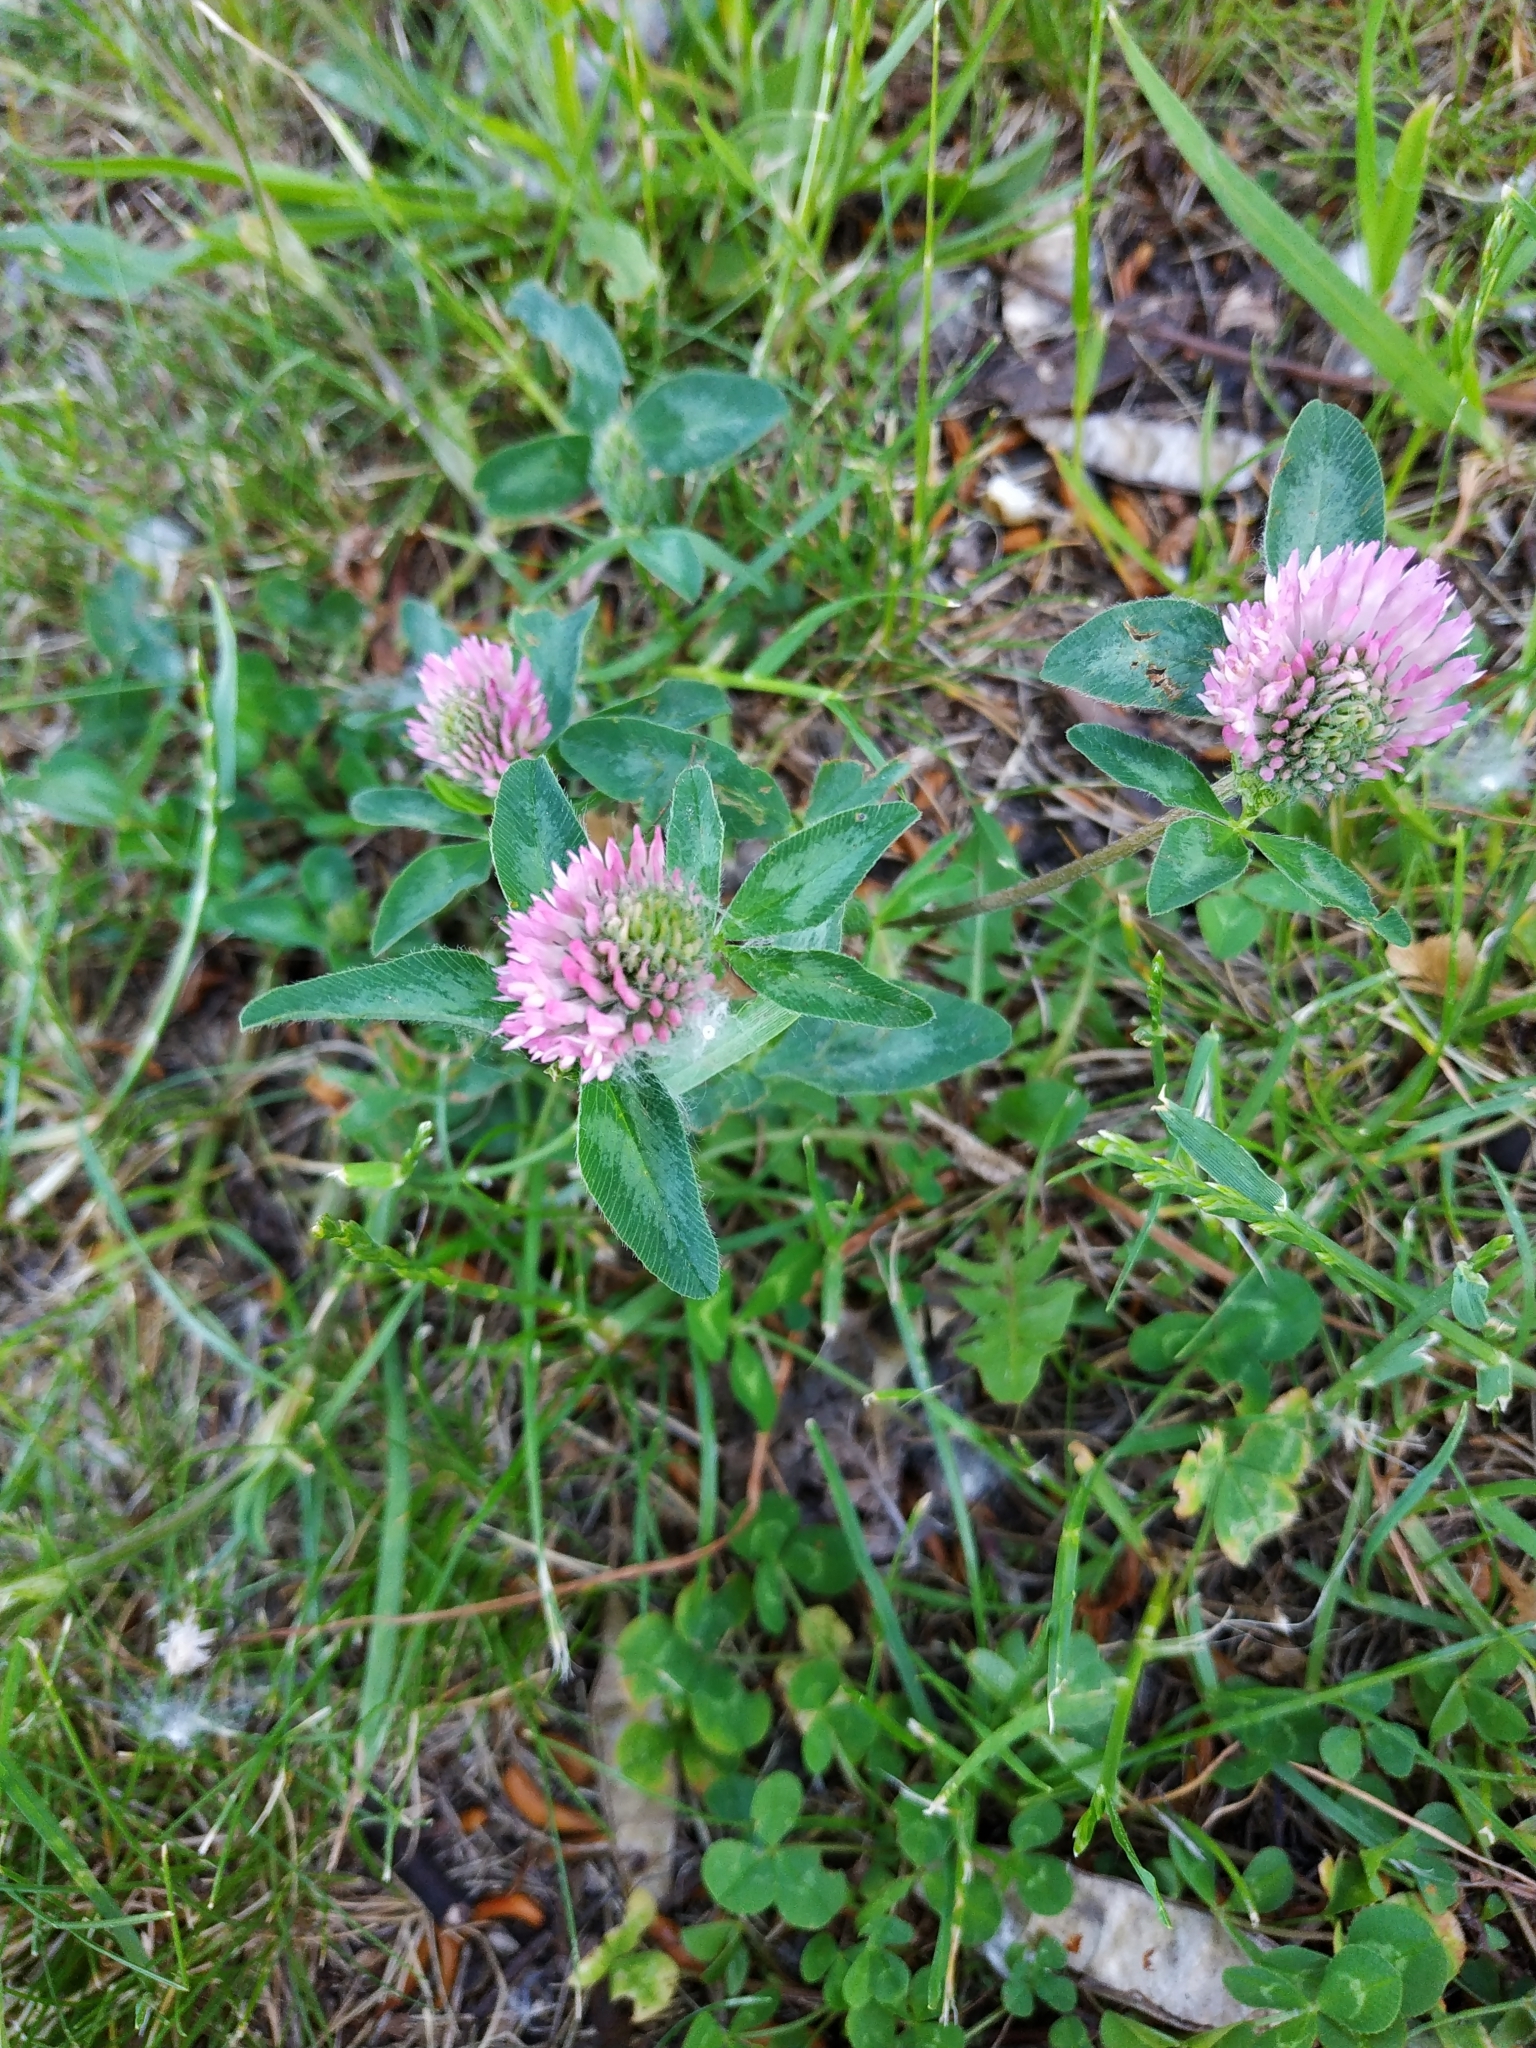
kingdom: Plantae
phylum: Tracheophyta
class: Magnoliopsida
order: Fabales
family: Fabaceae
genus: Trifolium
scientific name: Trifolium pratense
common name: Red clover
